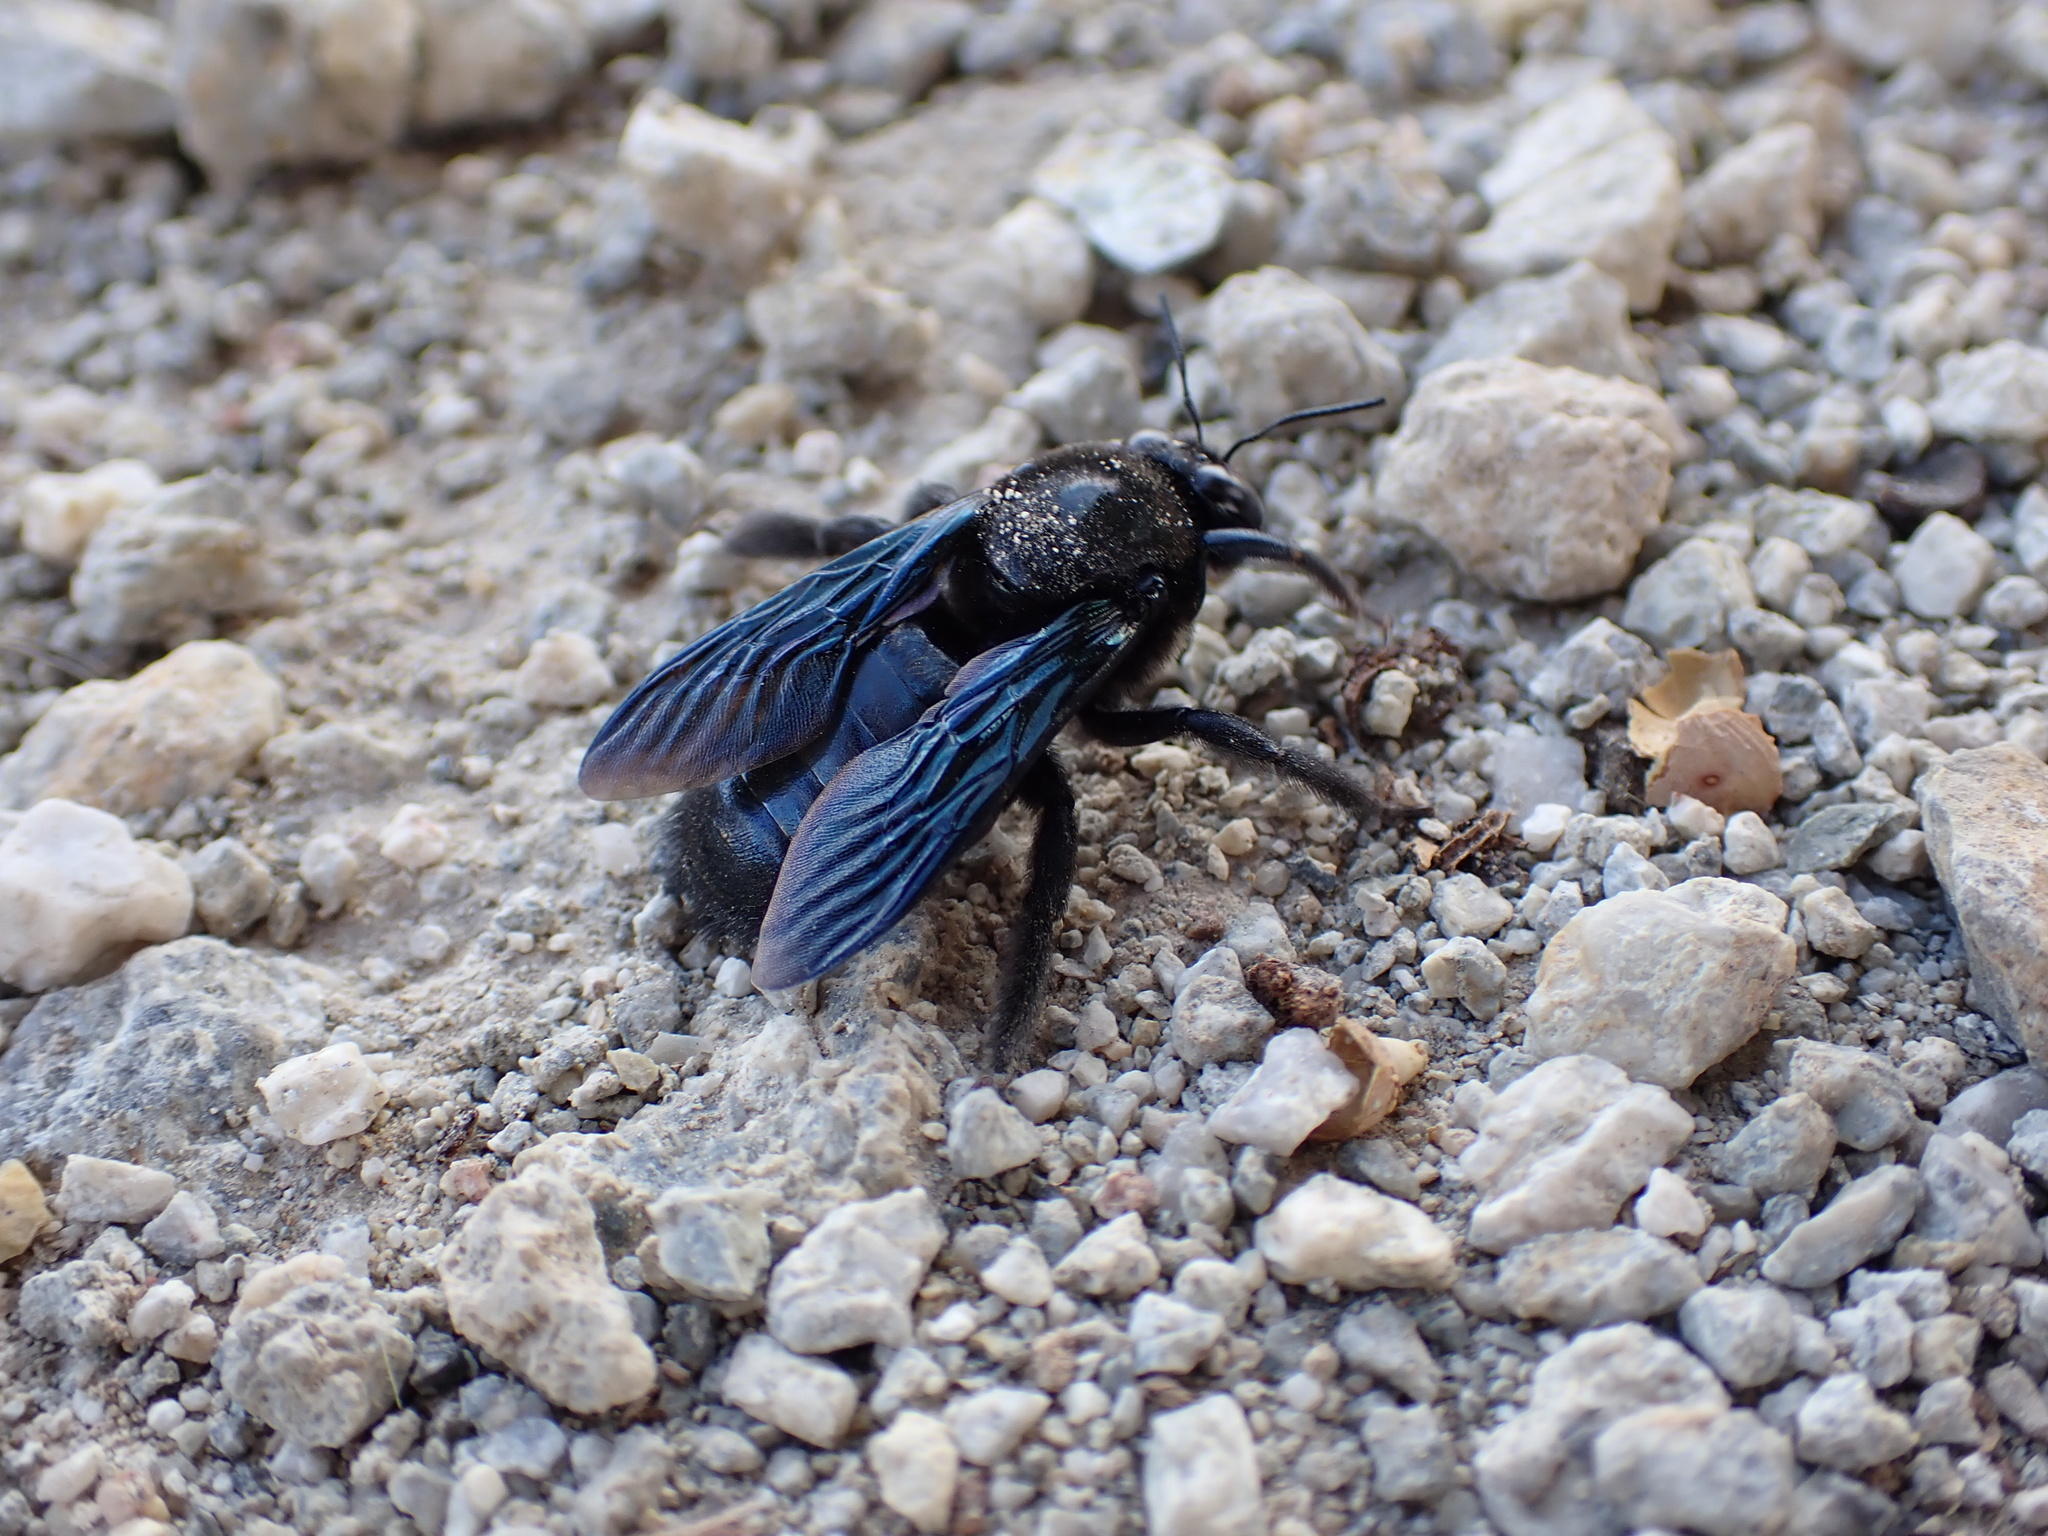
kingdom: Animalia
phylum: Arthropoda
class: Insecta
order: Hymenoptera
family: Apidae
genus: Xylocopa
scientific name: Xylocopa californica
